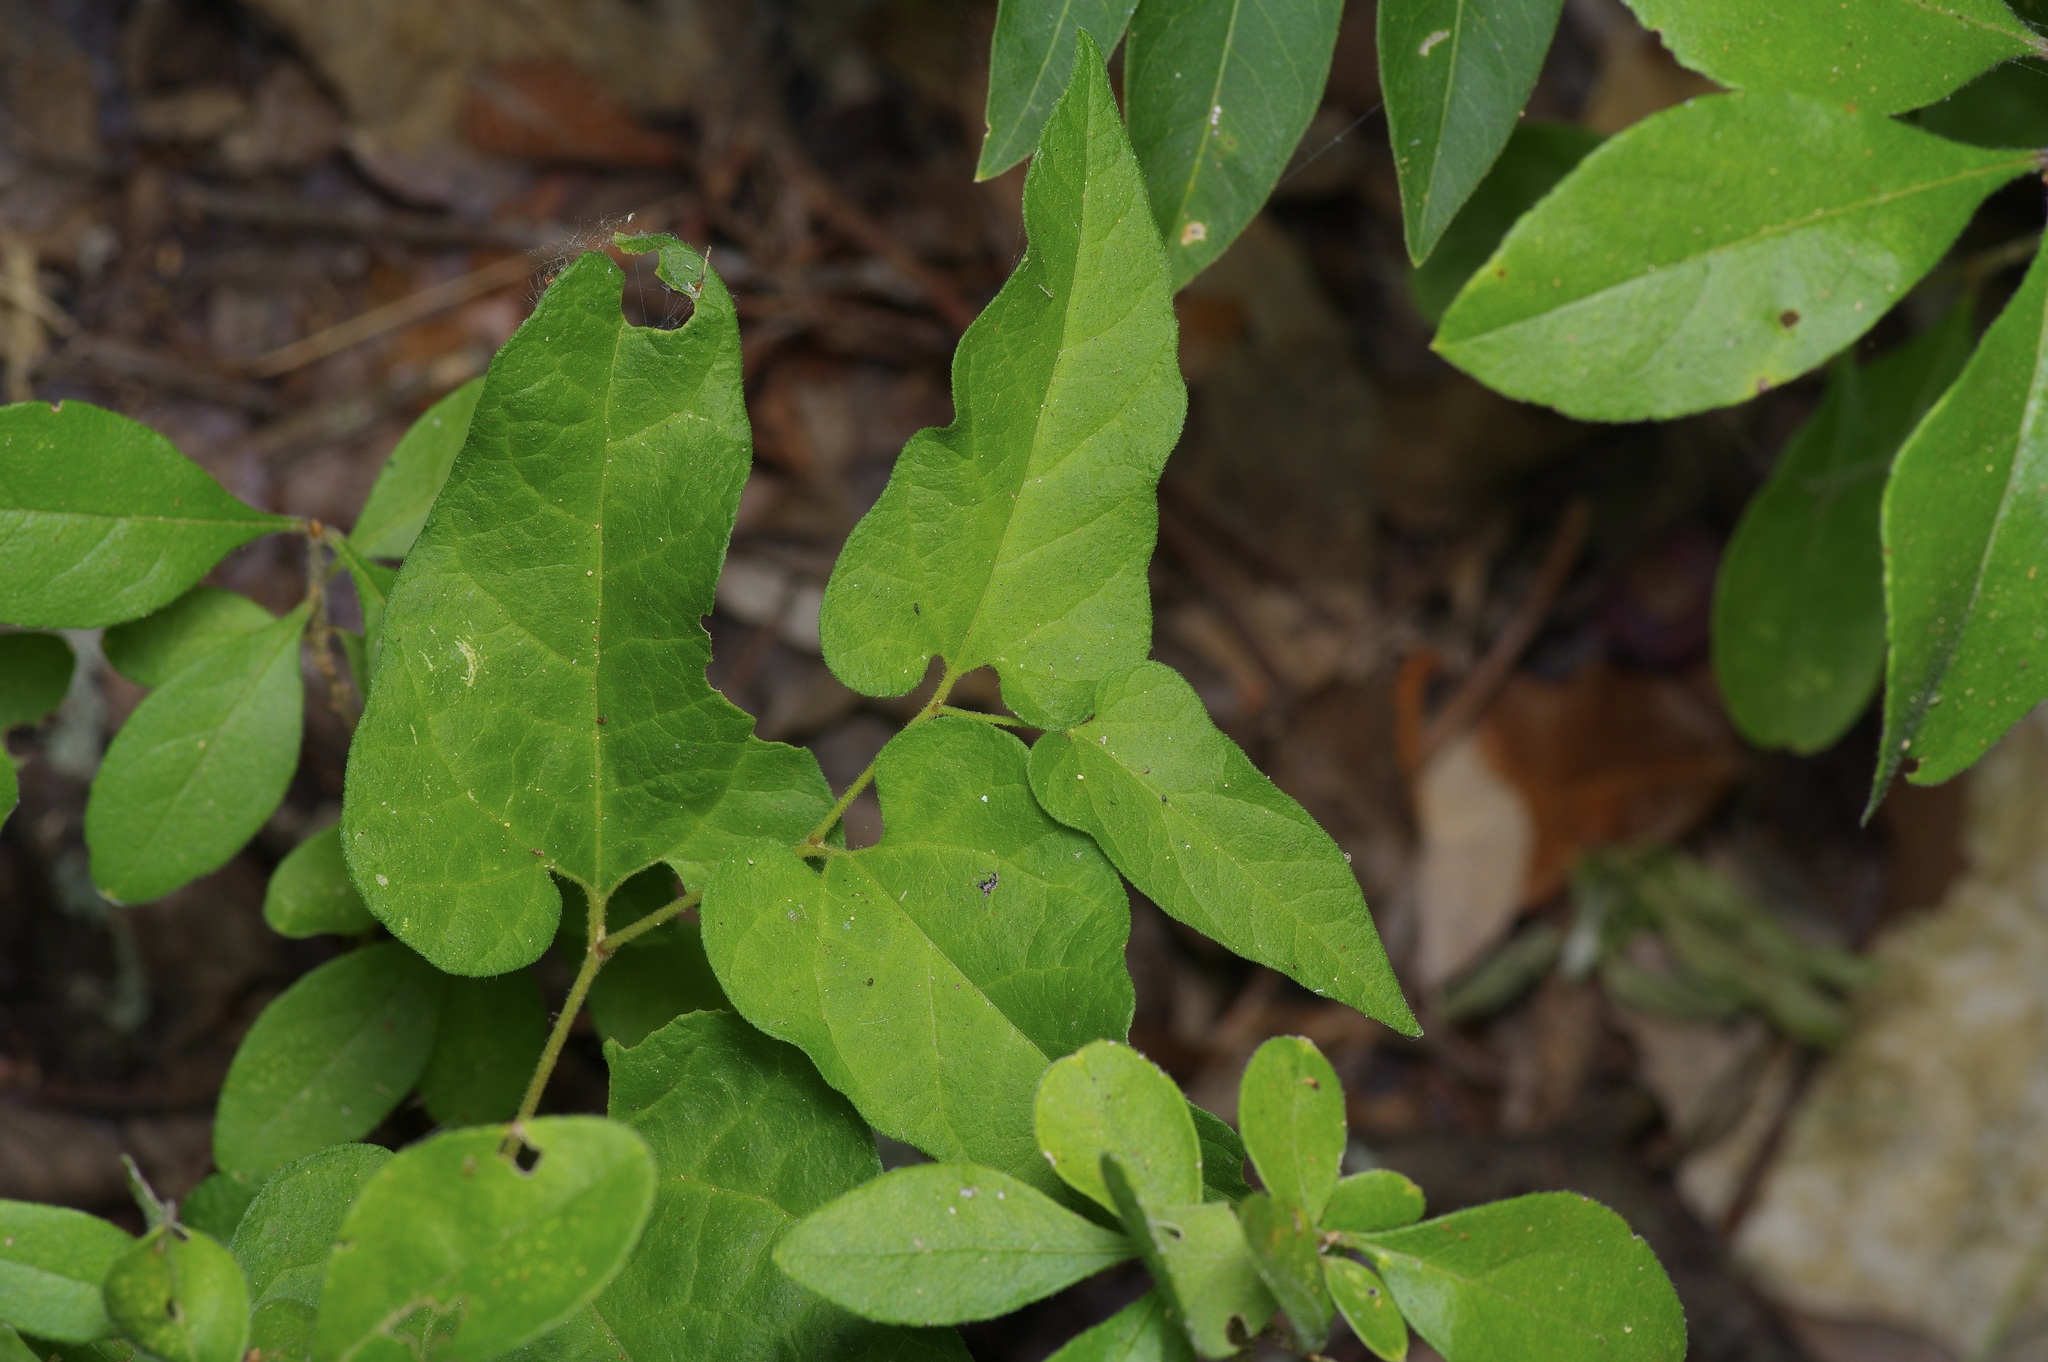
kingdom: Plantae
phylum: Tracheophyta
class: Magnoliopsida
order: Piperales
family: Aristolochiaceae
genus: Endodeca
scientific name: Endodeca serpentaria
